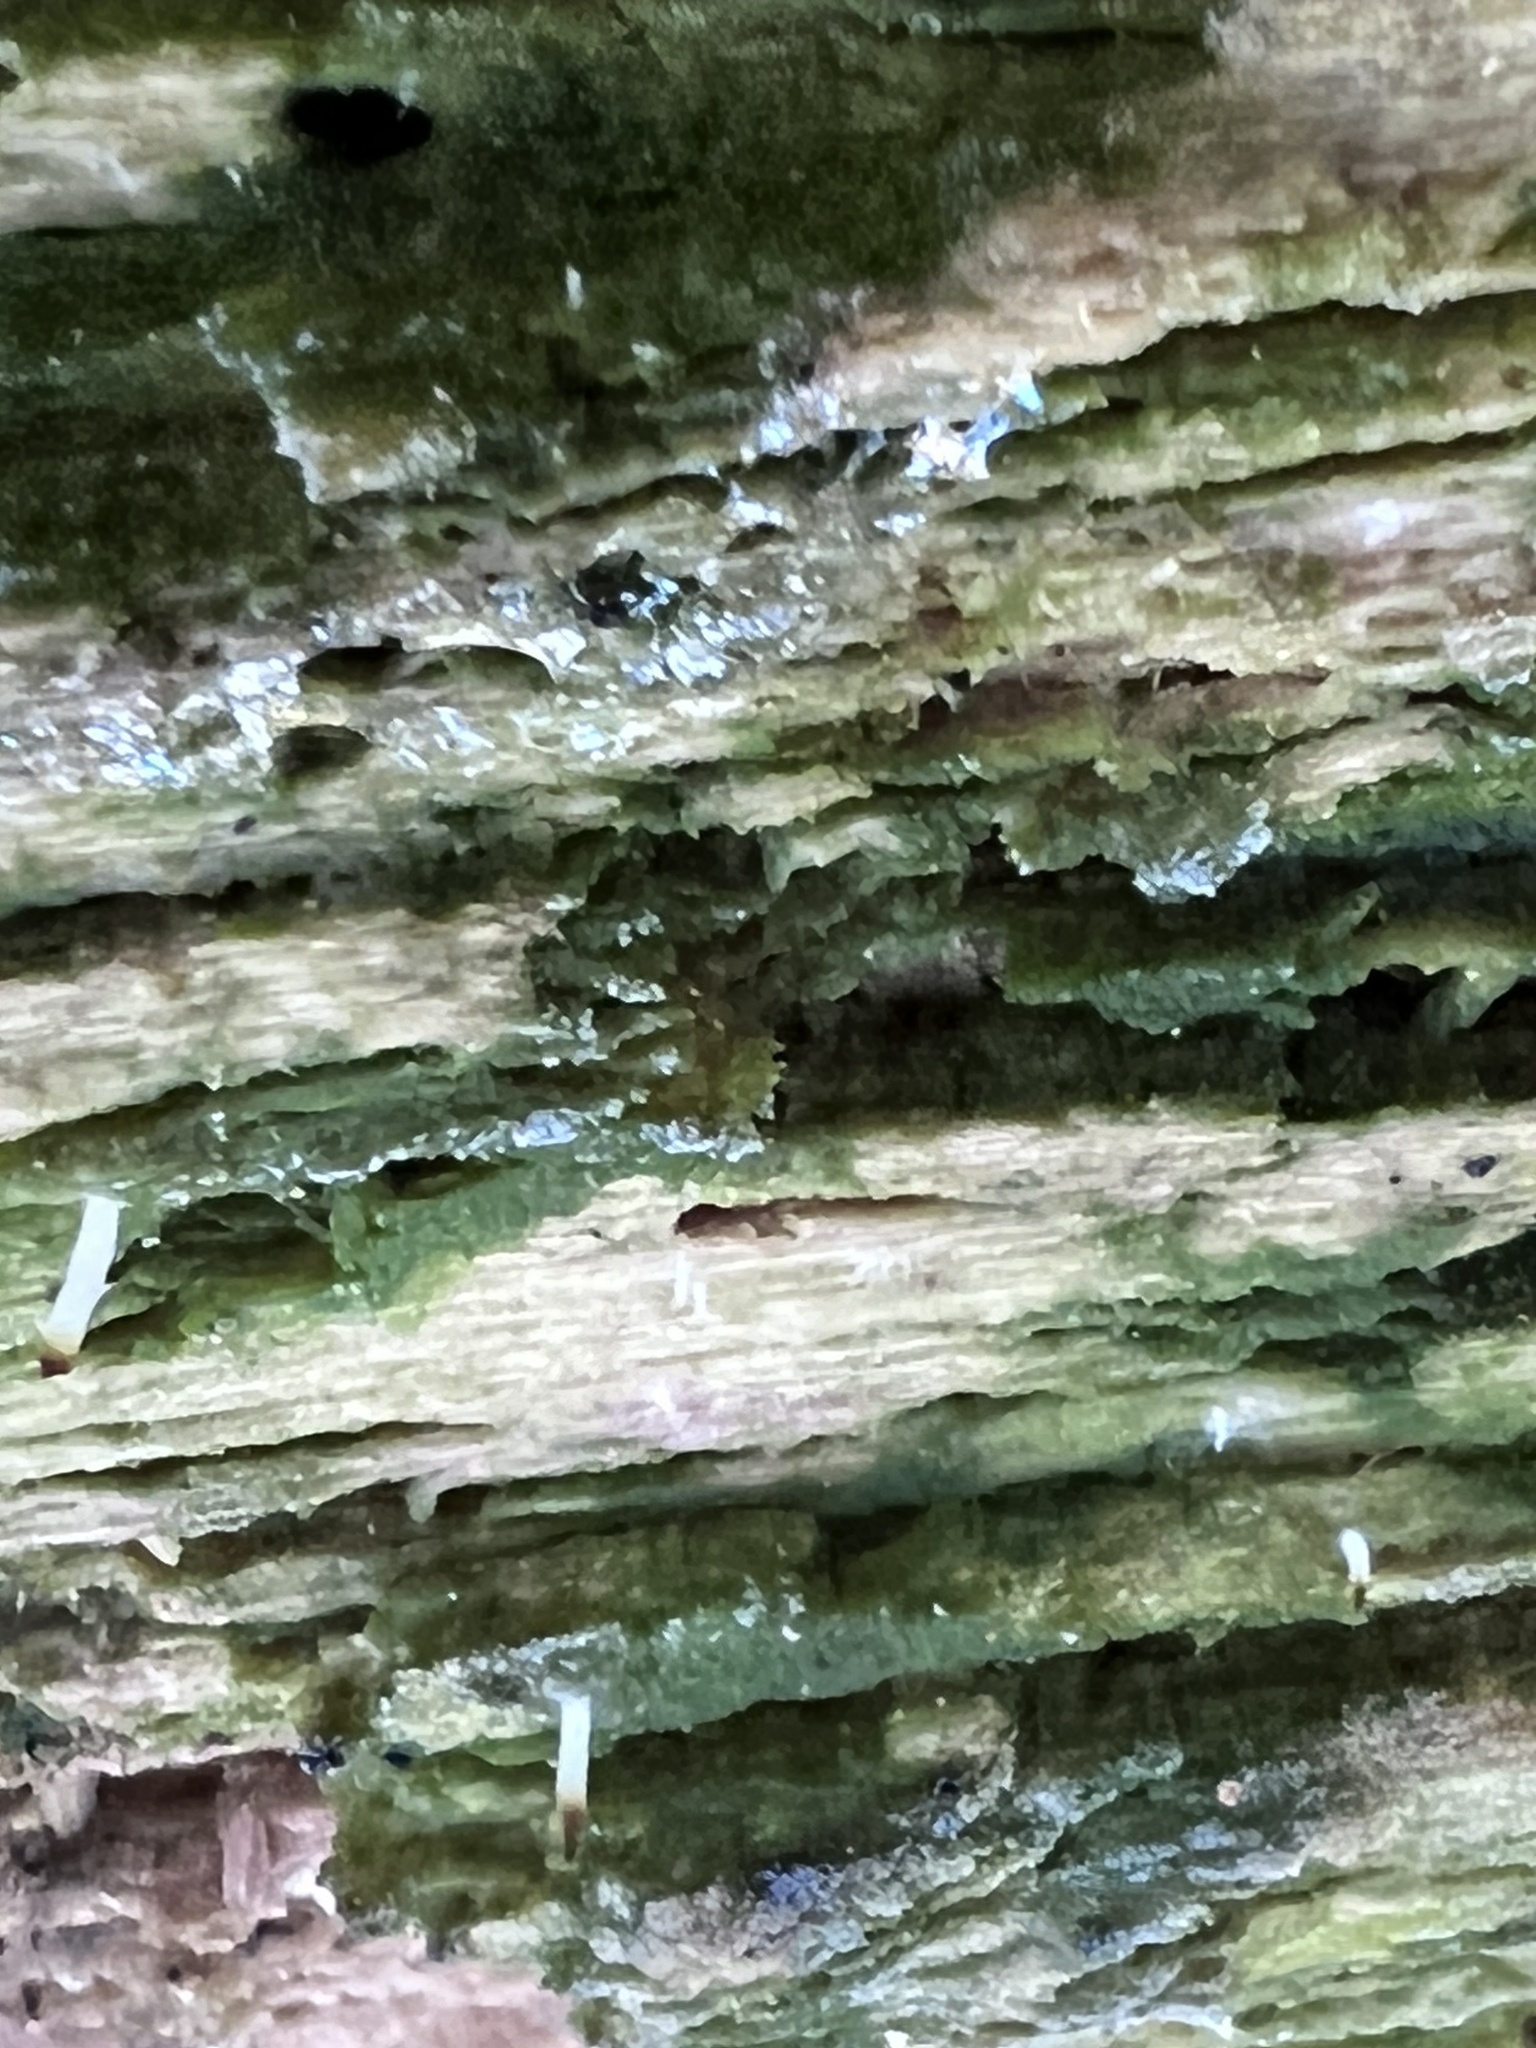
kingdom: Fungi
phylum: Basidiomycota
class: Agaricomycetes
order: Cantharellales
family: Hydnaceae
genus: Multiclavula
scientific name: Multiclavula mucida
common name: White green-algae coral
